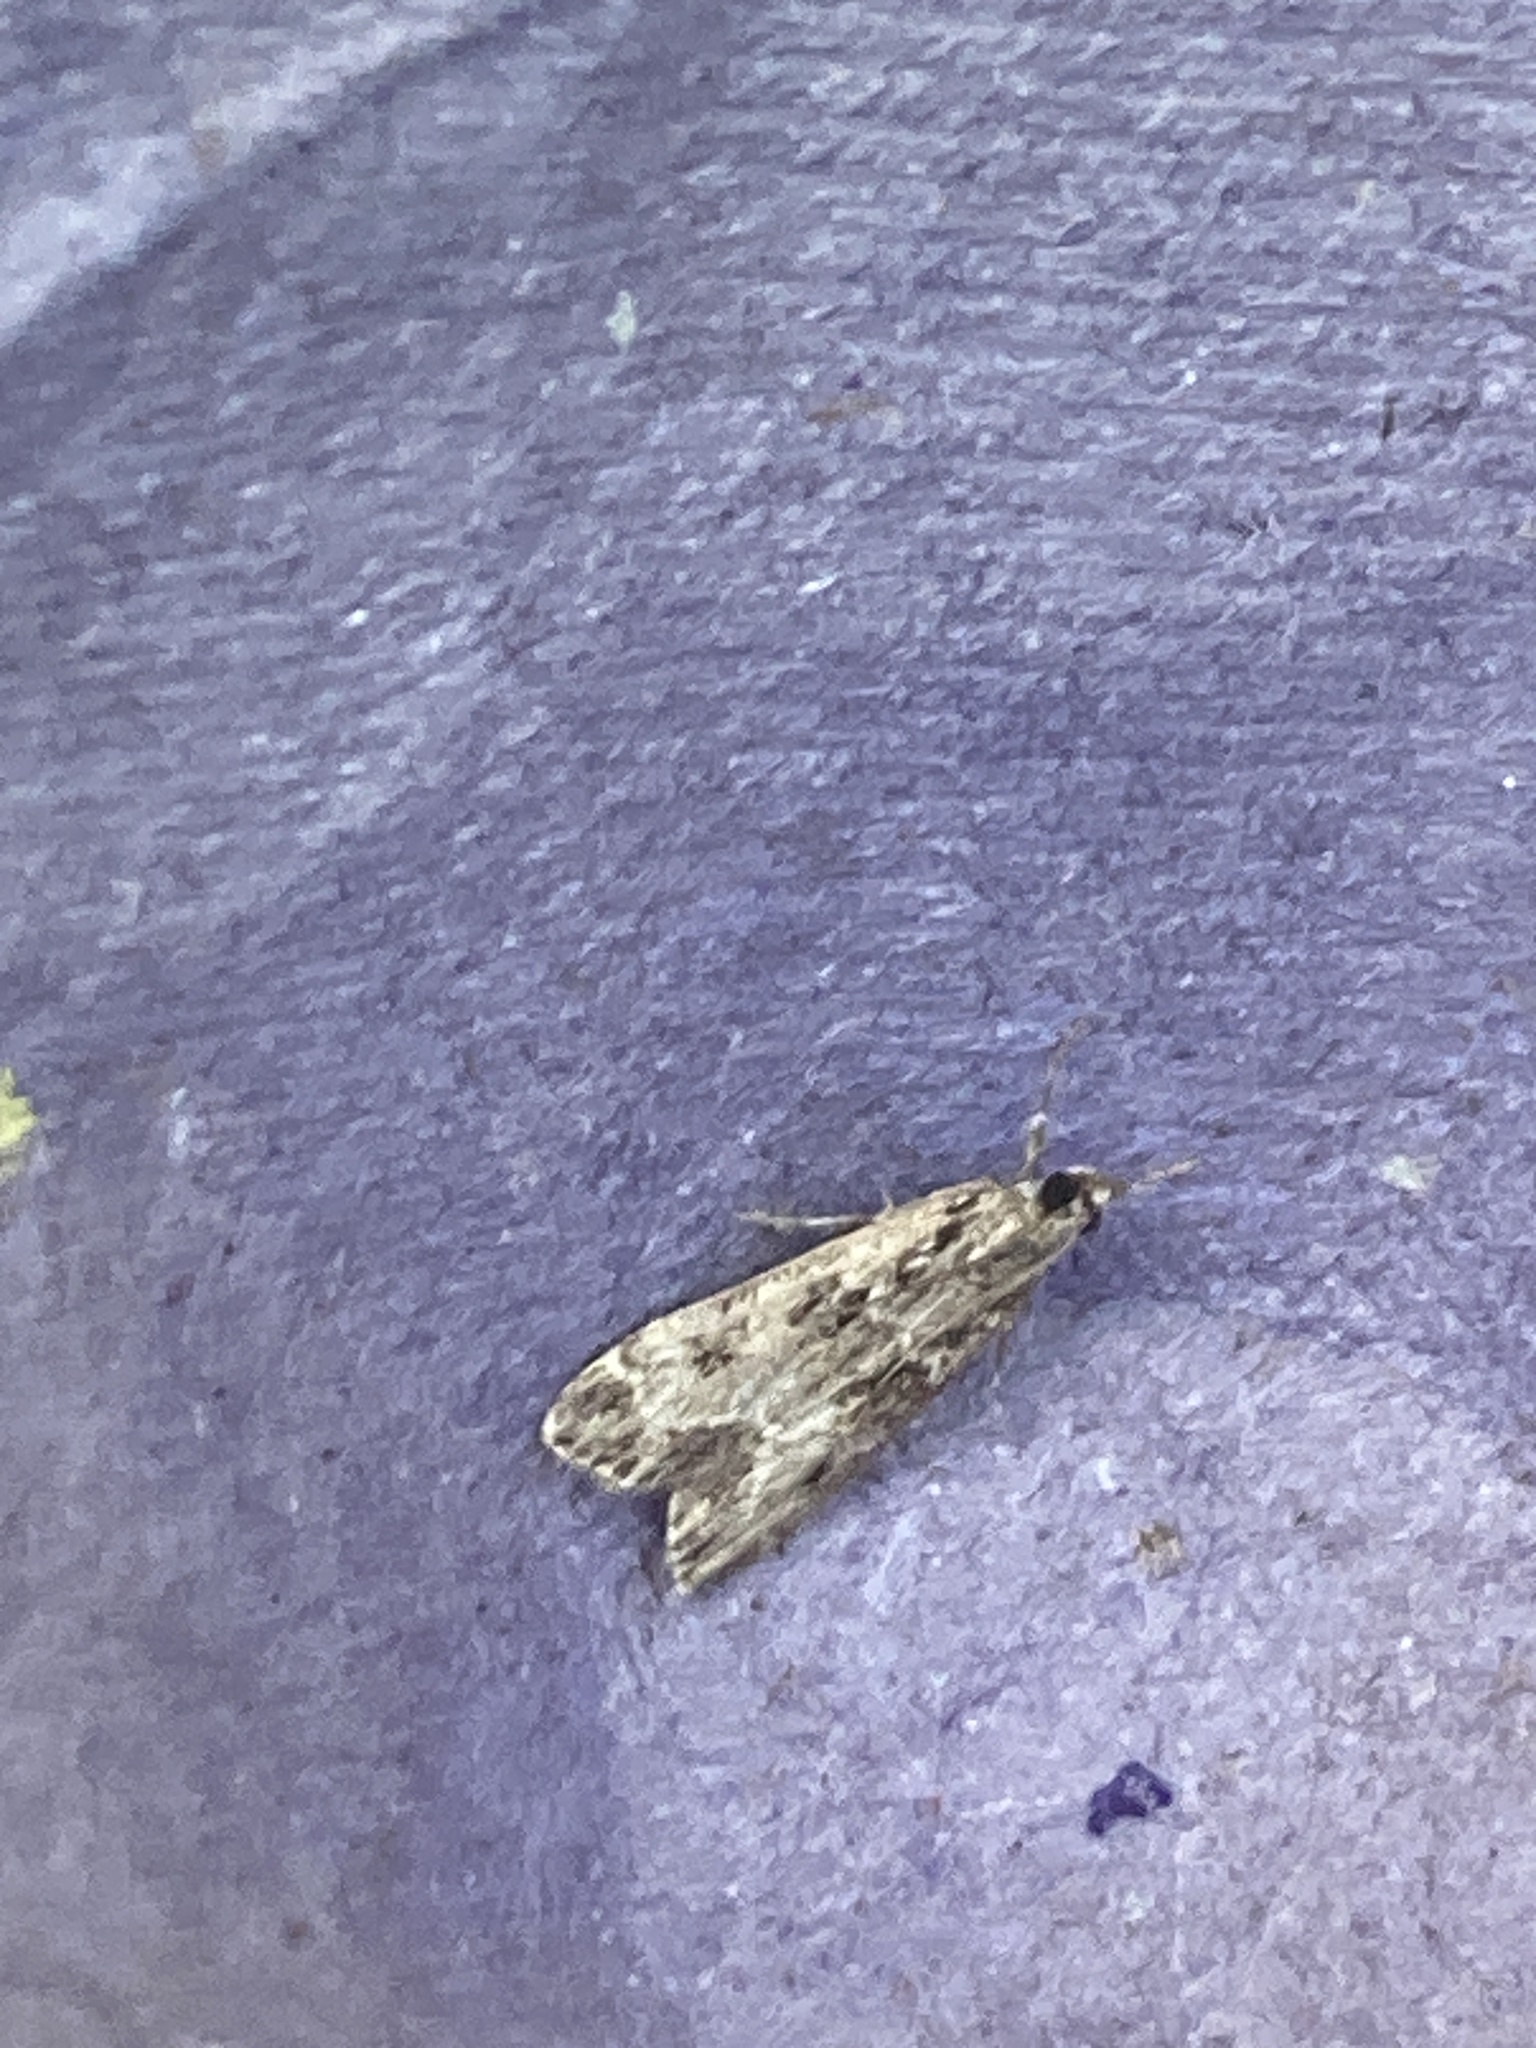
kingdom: Animalia
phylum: Arthropoda
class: Insecta
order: Lepidoptera
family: Crambidae
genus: Eudonia
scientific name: Eudonia mercurella
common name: Small grey
